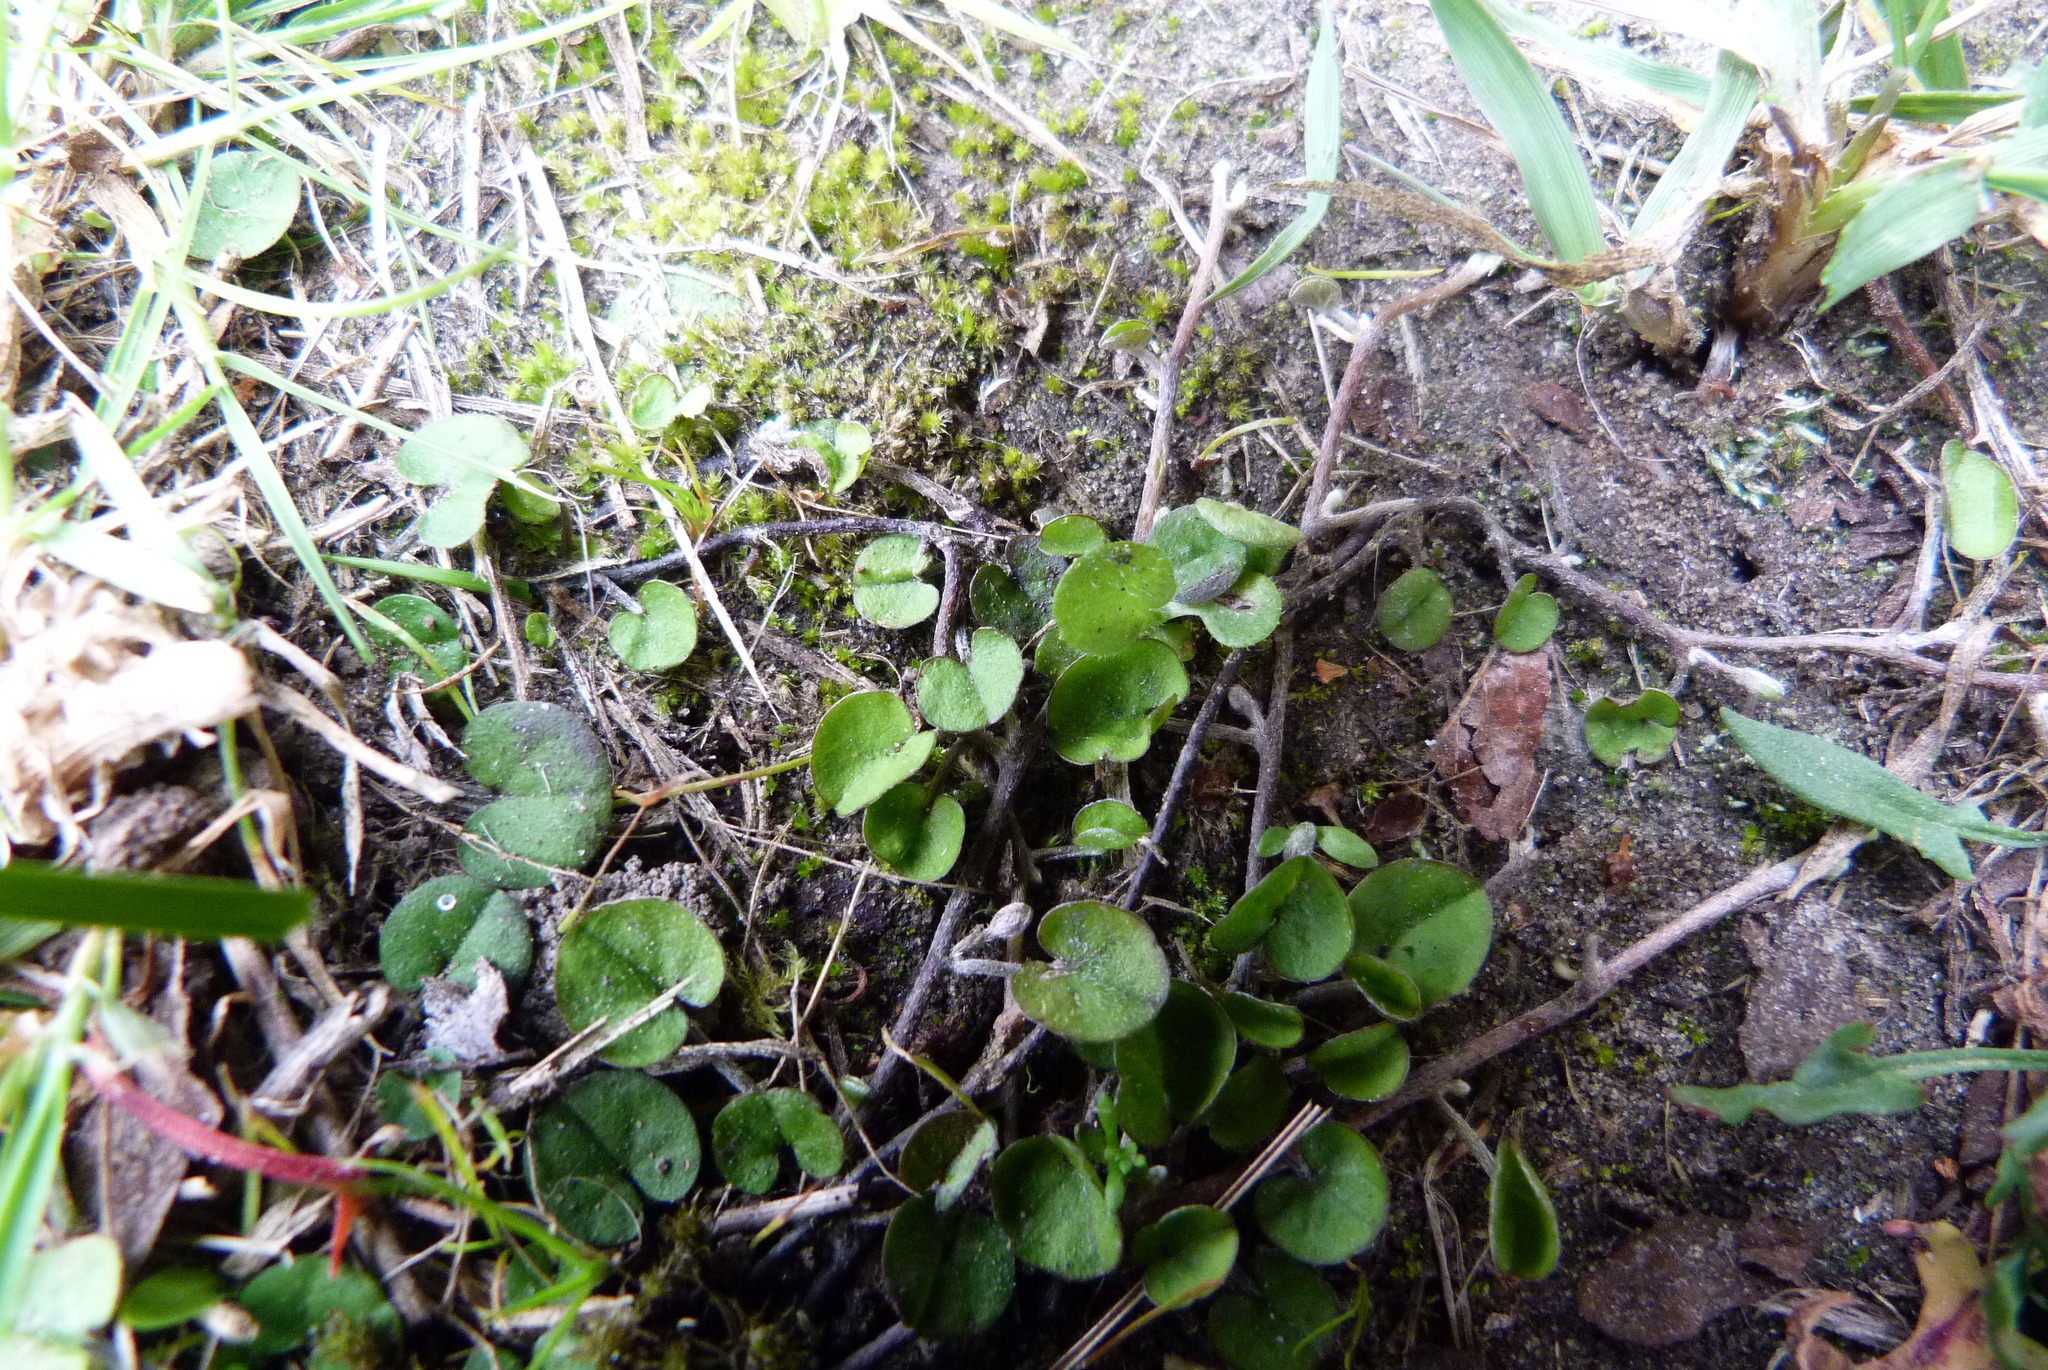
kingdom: Plantae
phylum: Tracheophyta
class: Magnoliopsida
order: Solanales
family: Convolvulaceae
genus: Dichondra
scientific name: Dichondra brevifolia
